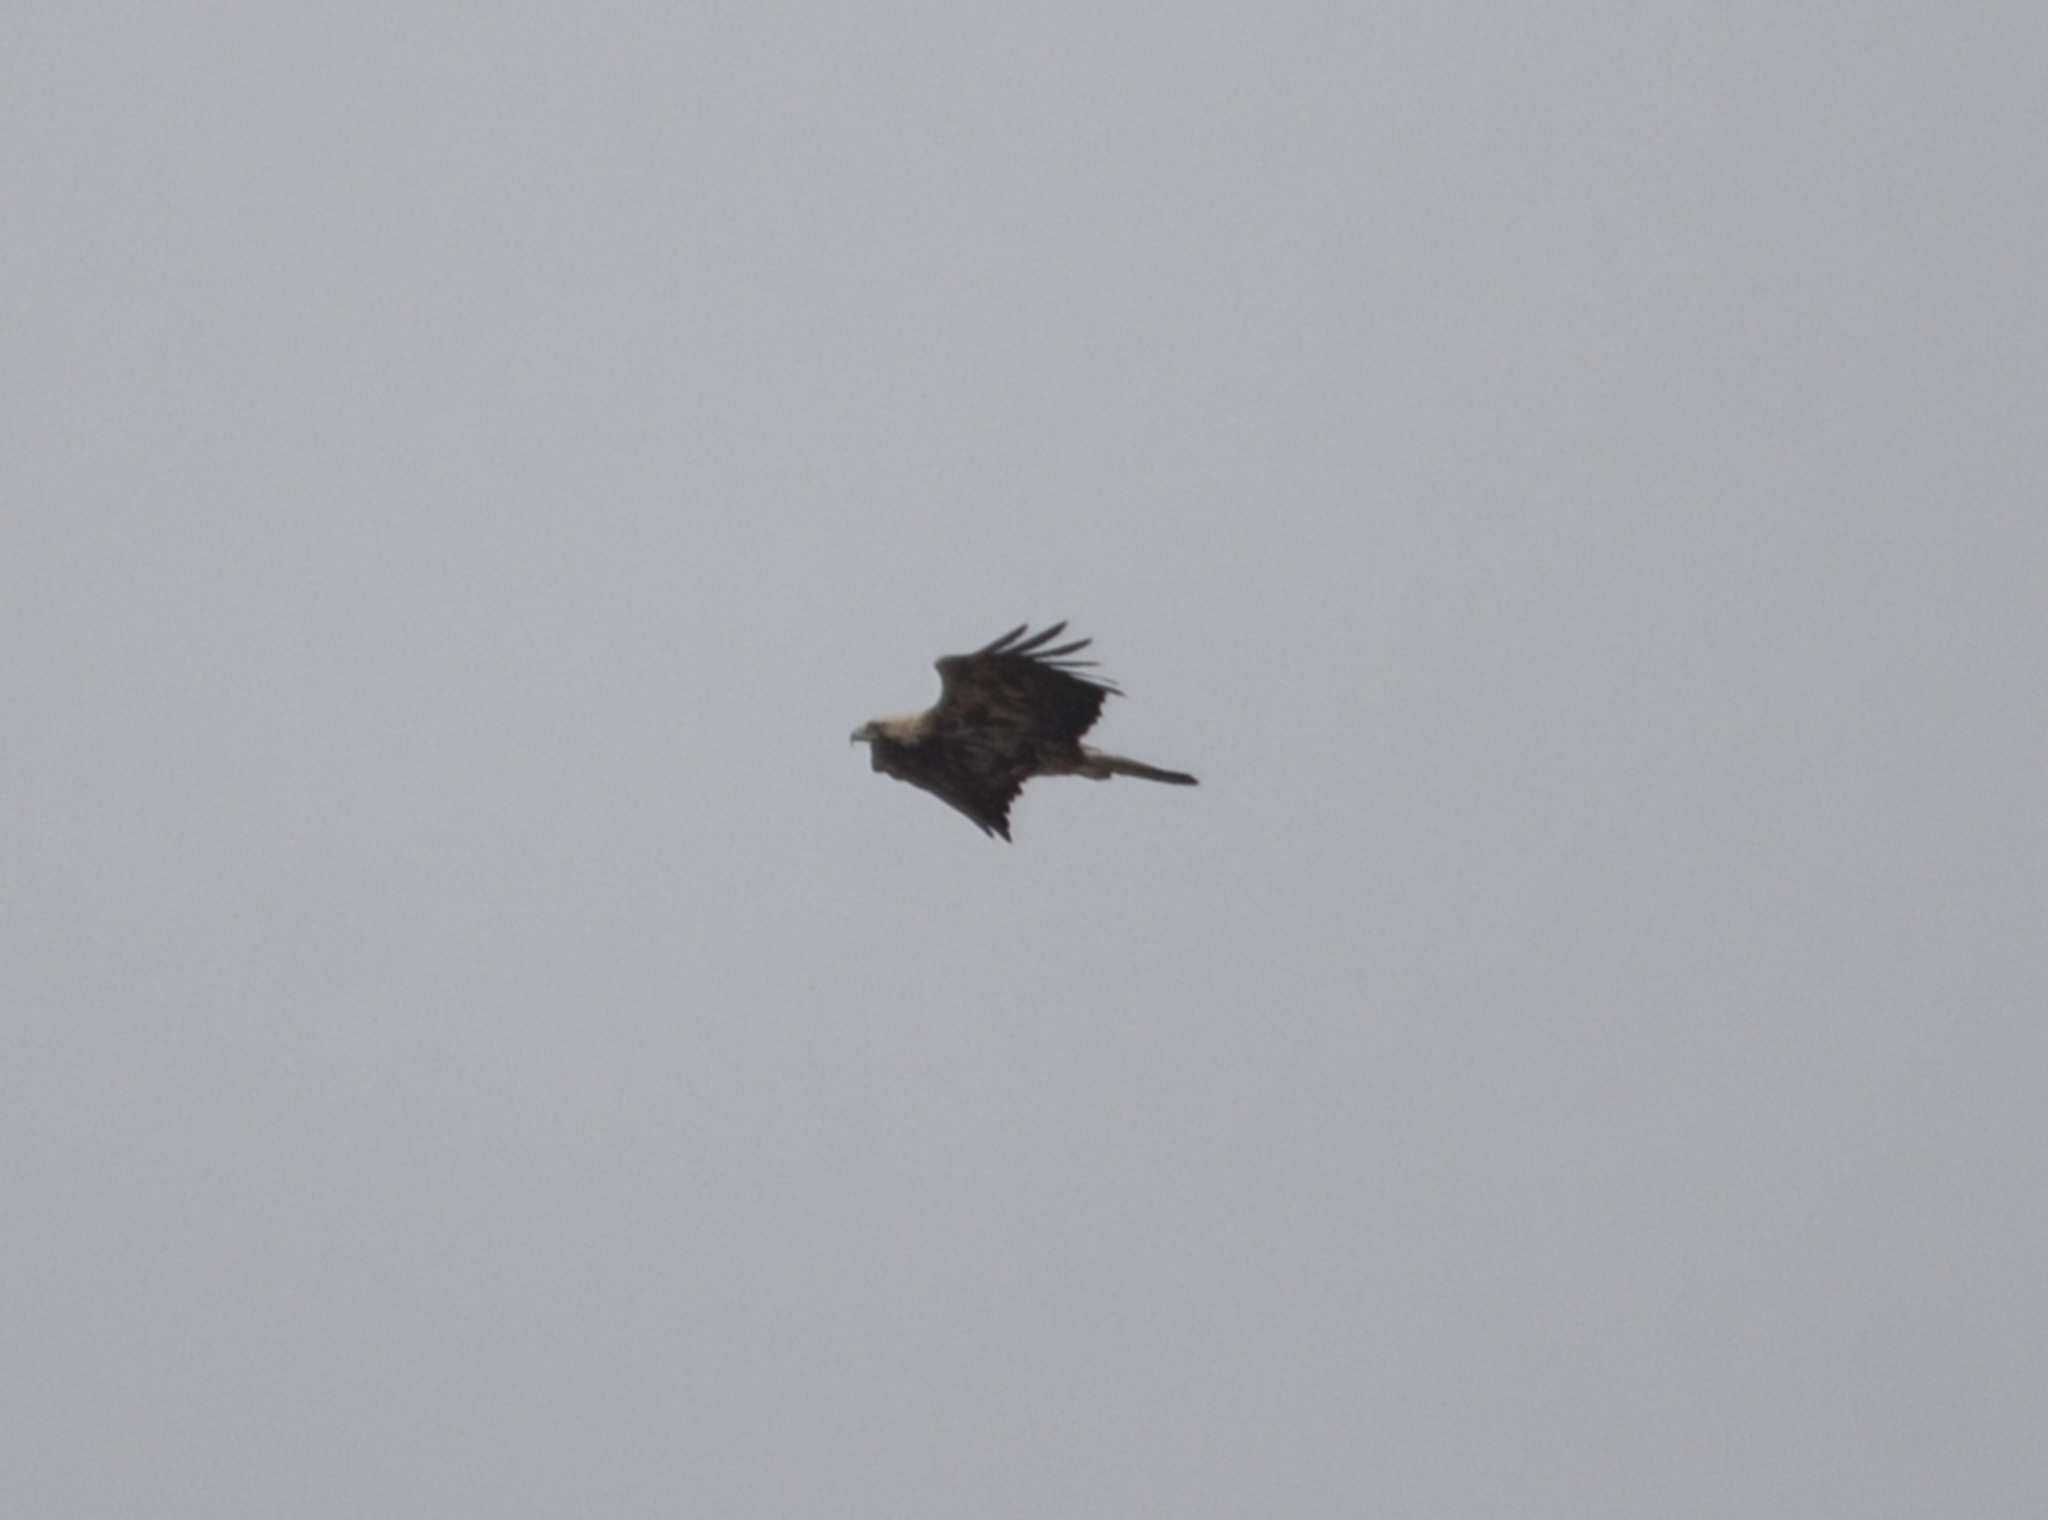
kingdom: Animalia
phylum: Chordata
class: Aves
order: Accipitriformes
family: Accipitridae
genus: Aquila
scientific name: Aquila heliaca
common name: Eastern imperial eagle
